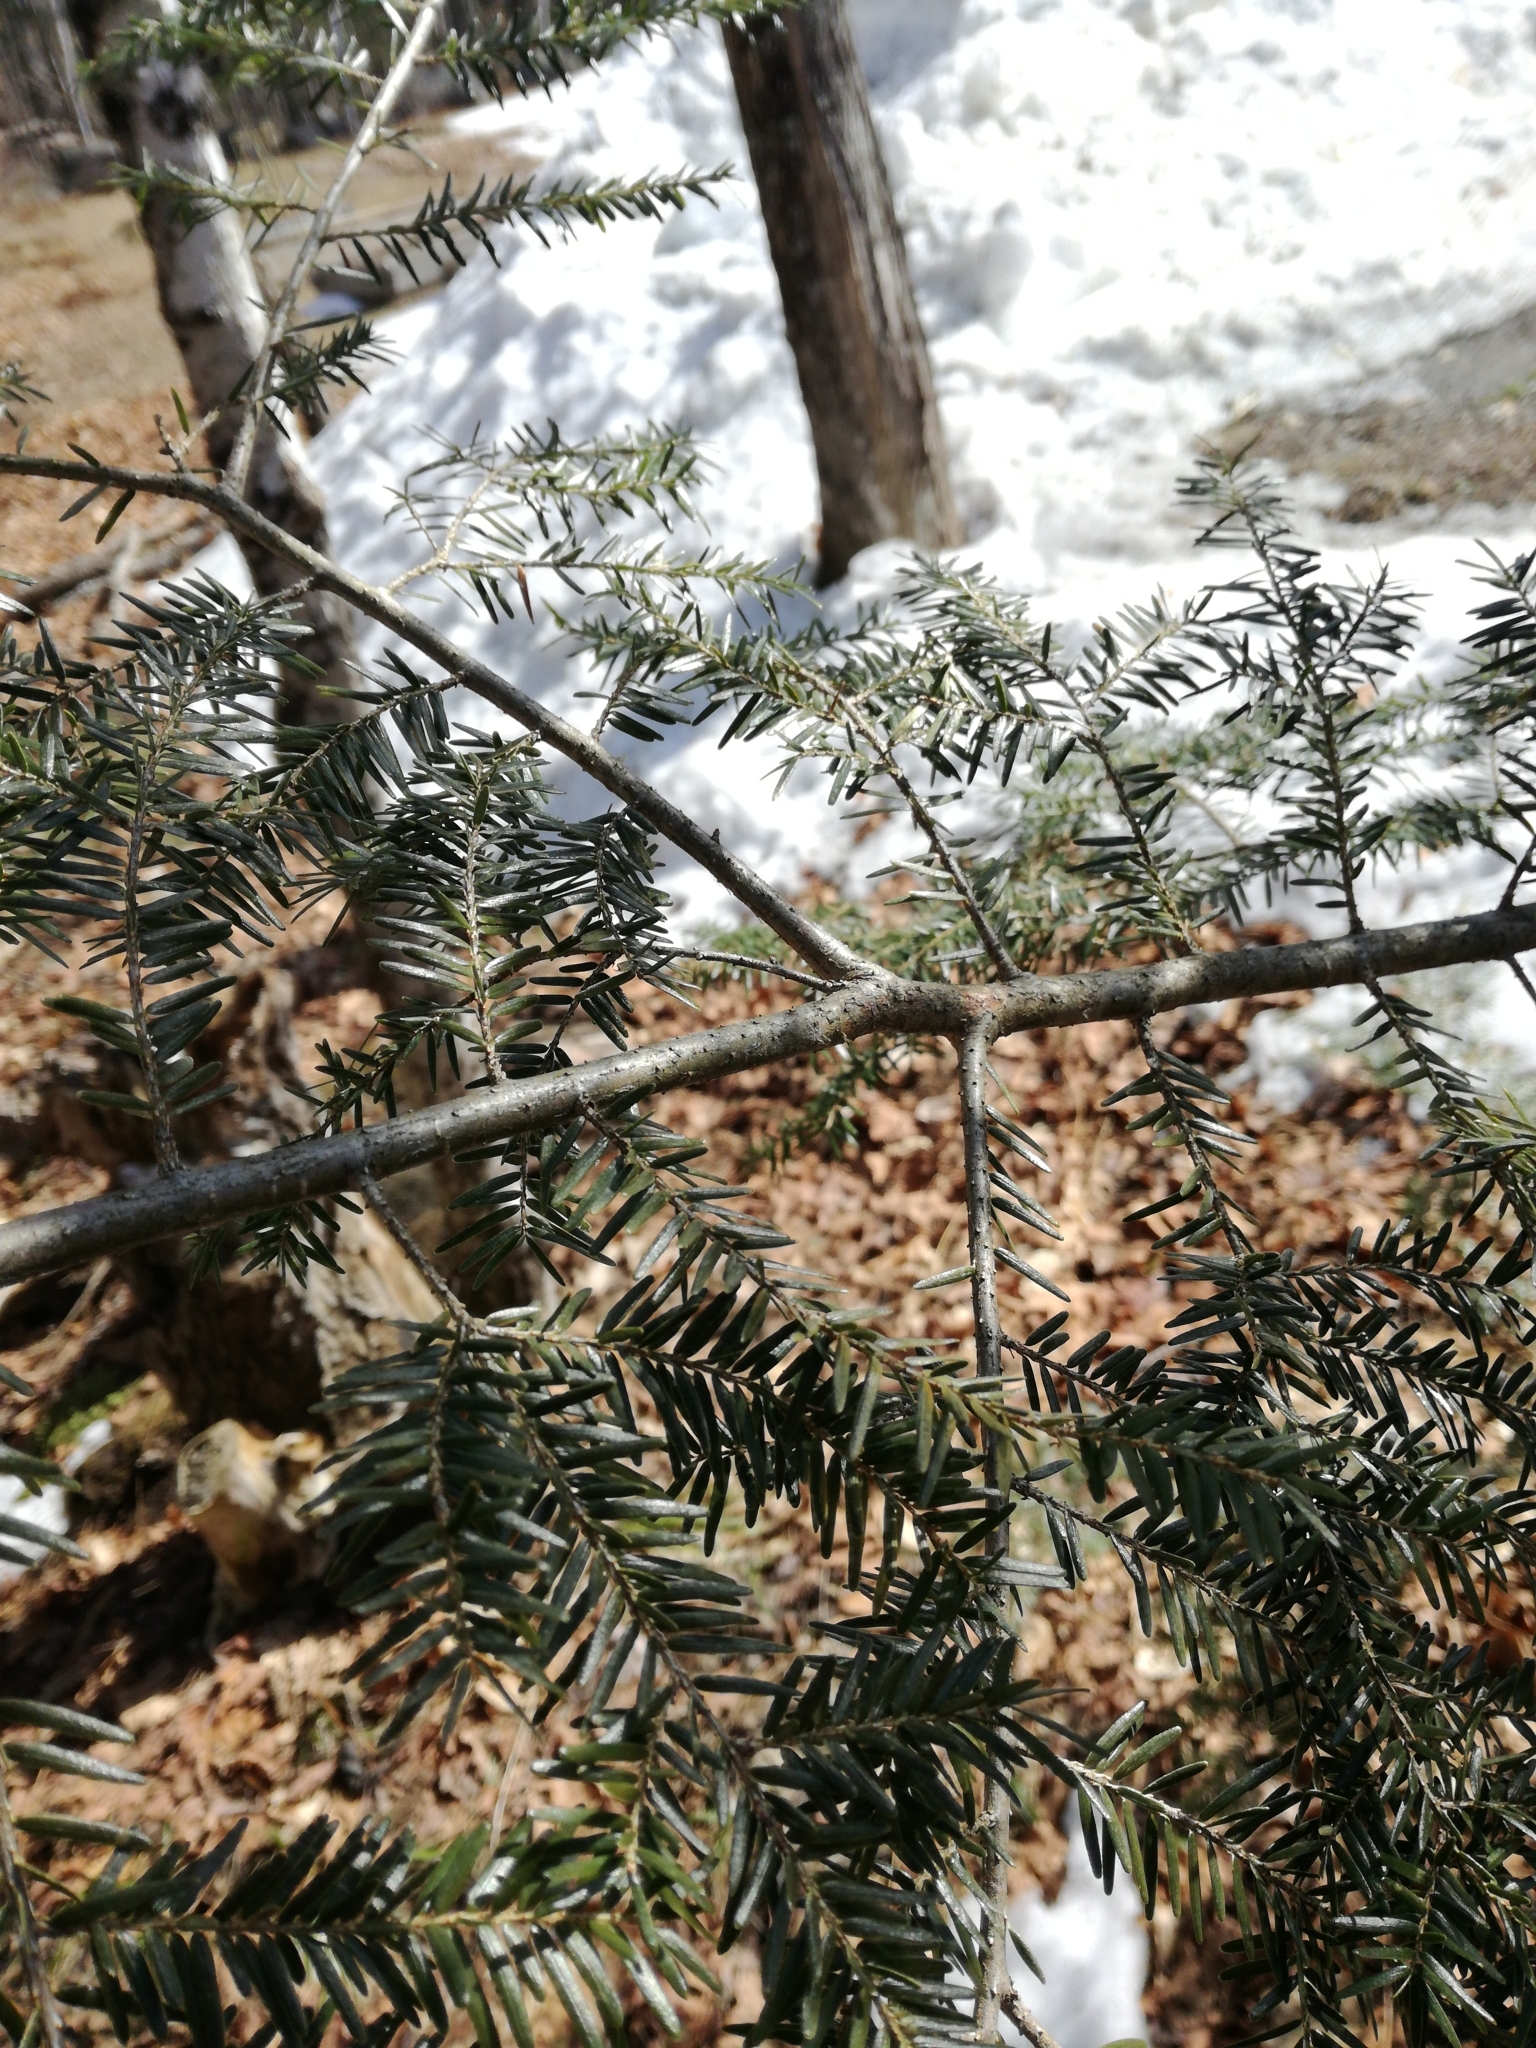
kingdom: Plantae
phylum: Tracheophyta
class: Pinopsida
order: Pinales
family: Pinaceae
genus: Tsuga
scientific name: Tsuga canadensis
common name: Eastern hemlock
